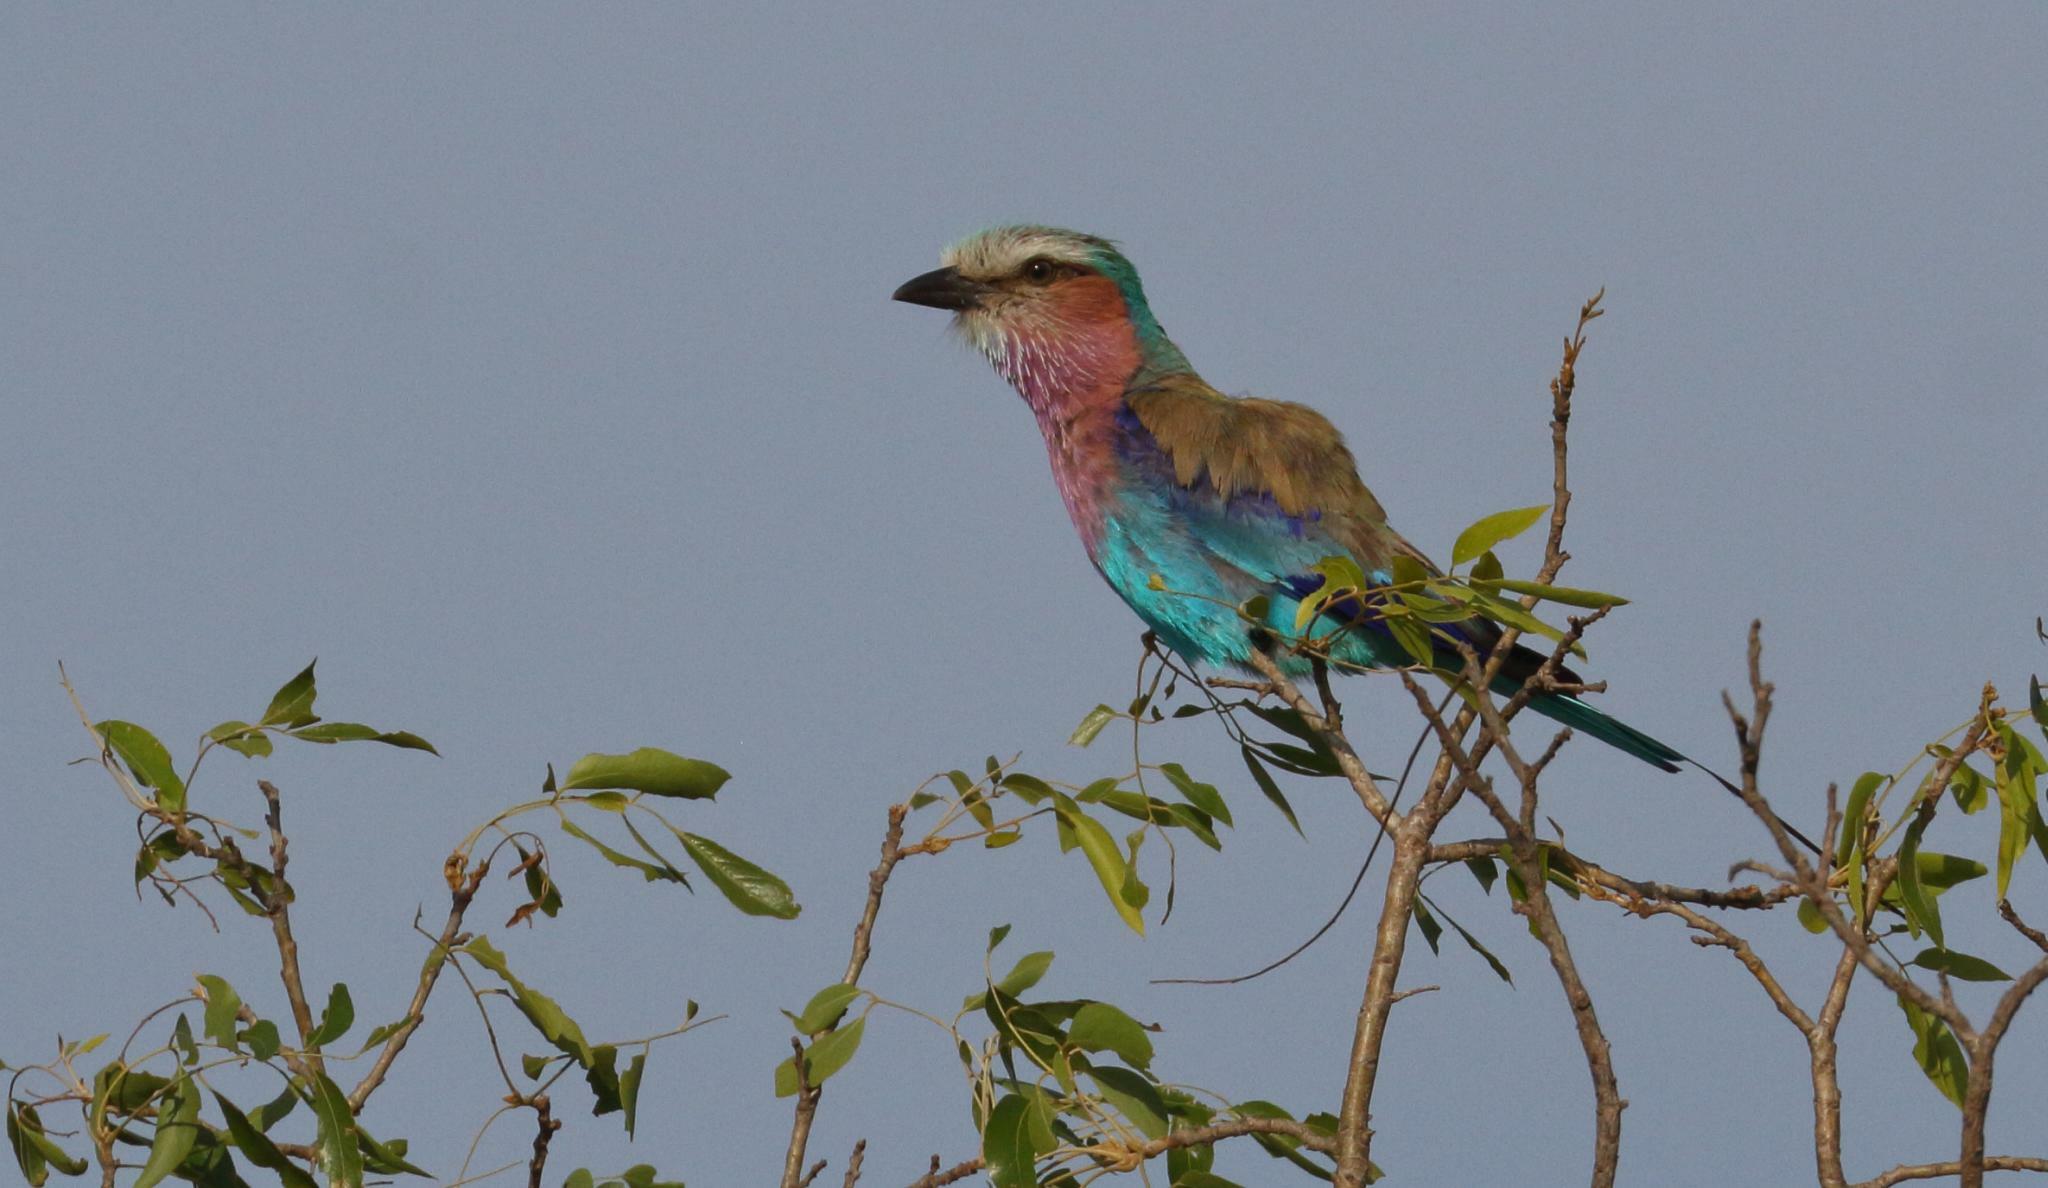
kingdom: Animalia
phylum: Chordata
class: Aves
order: Coraciiformes
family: Coraciidae
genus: Coracias
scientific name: Coracias caudatus
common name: Lilac-breasted roller
